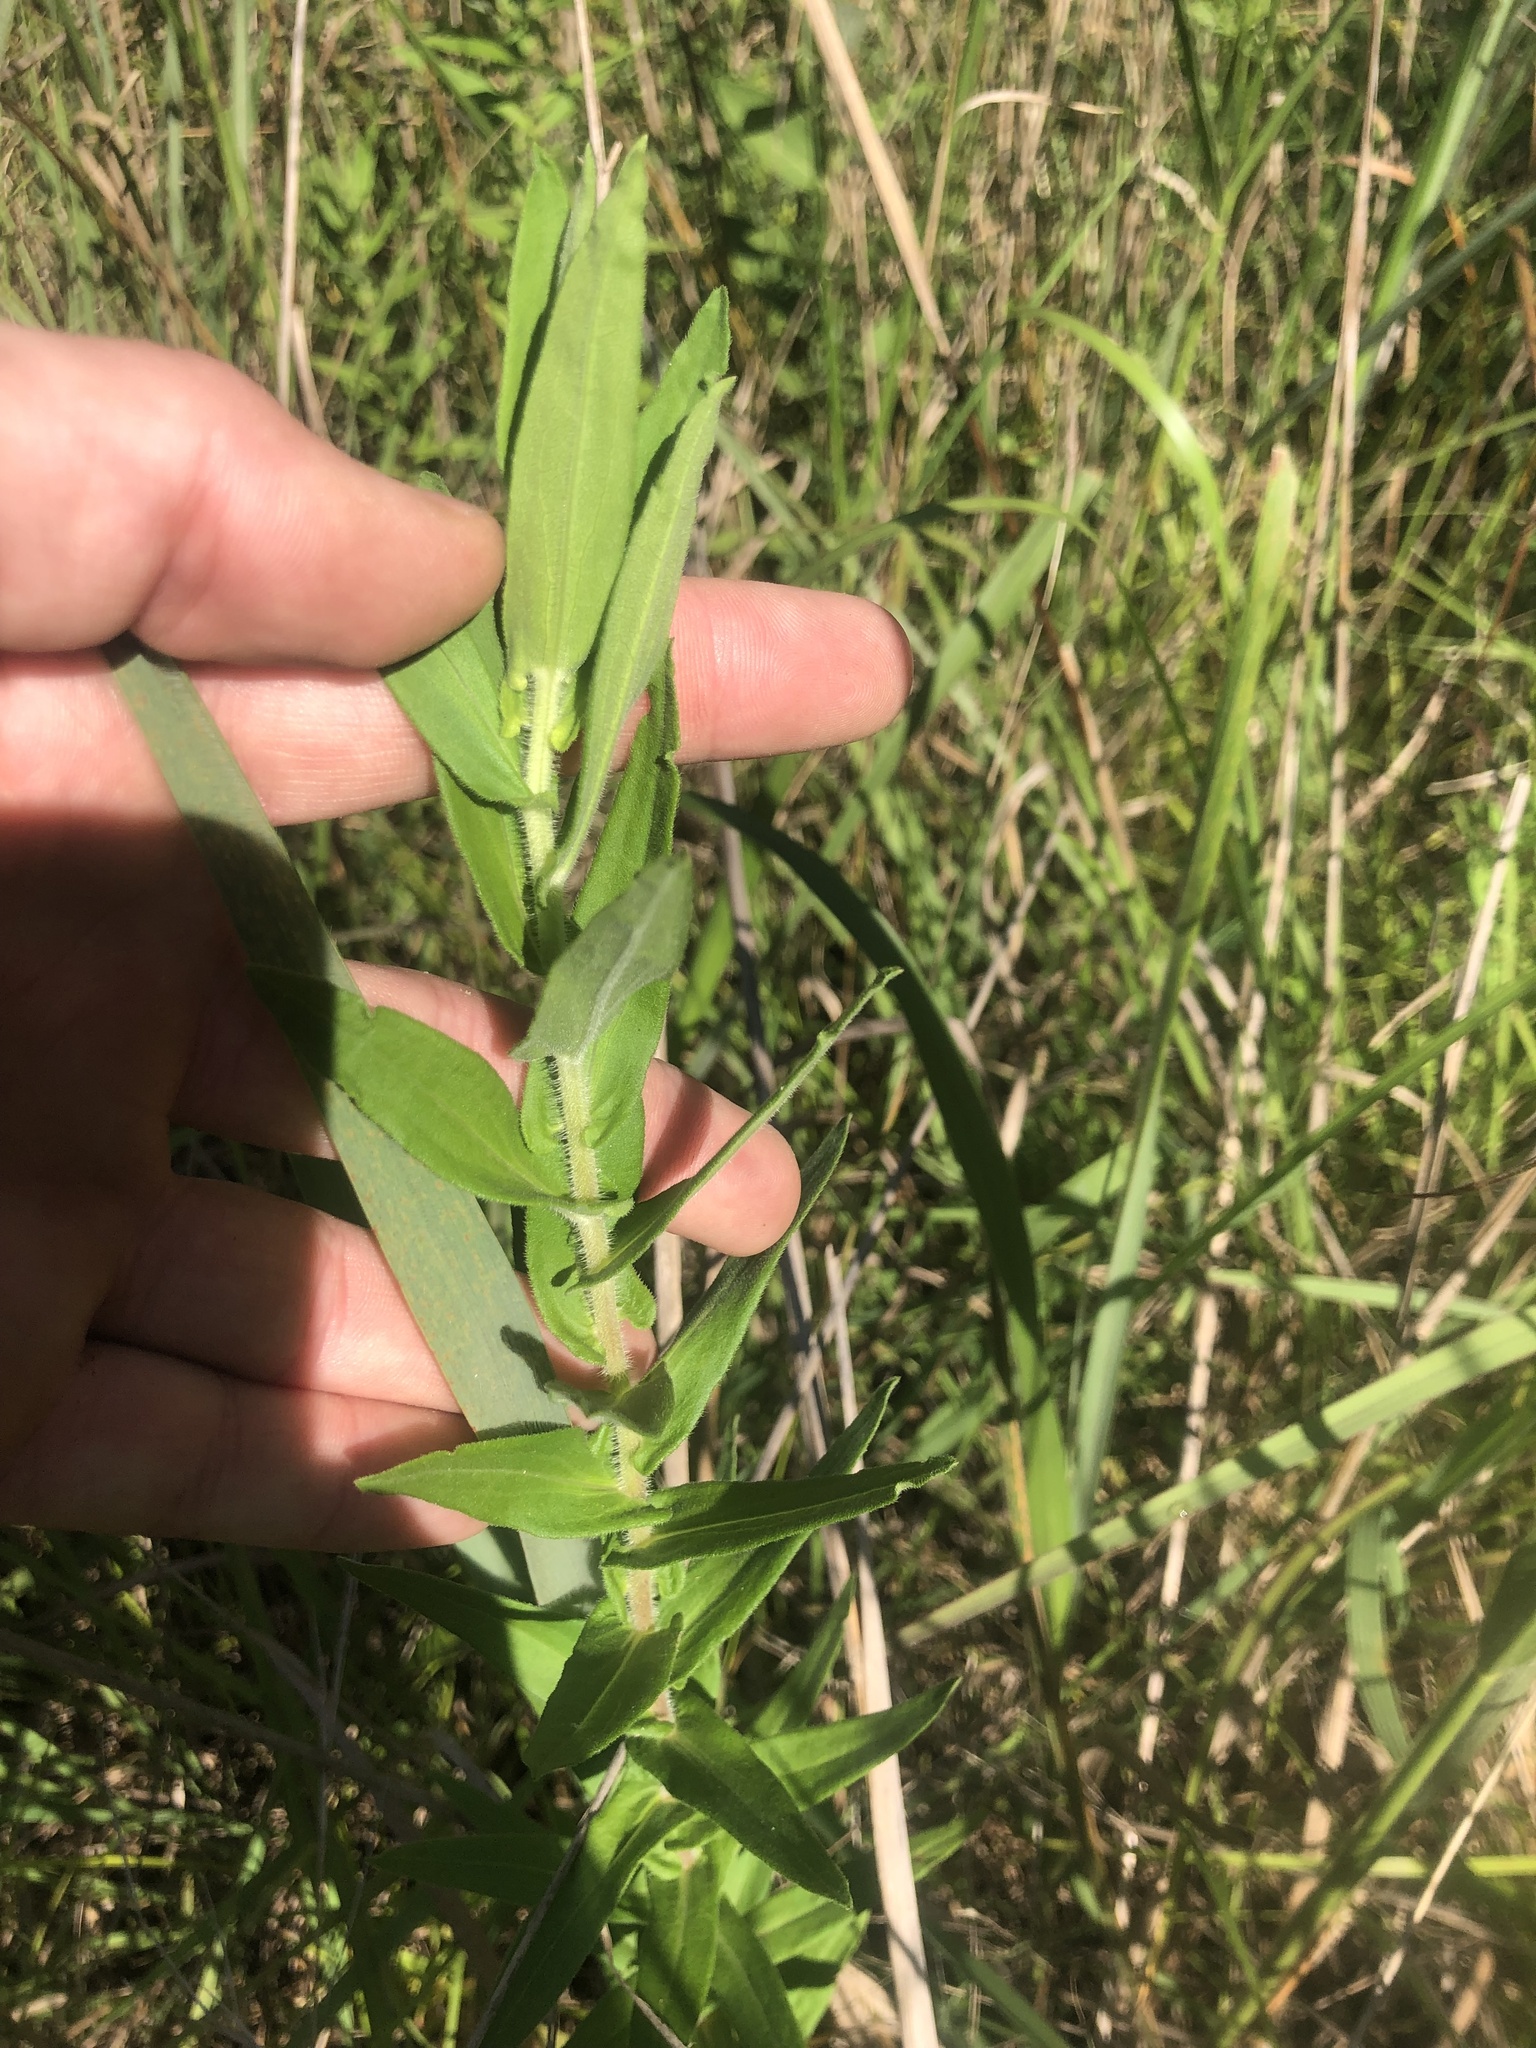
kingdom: Plantae
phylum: Tracheophyta
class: Magnoliopsida
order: Asterales
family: Asteraceae
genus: Symphyotrichum
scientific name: Symphyotrichum novae-angliae
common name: Michaelmas daisy
